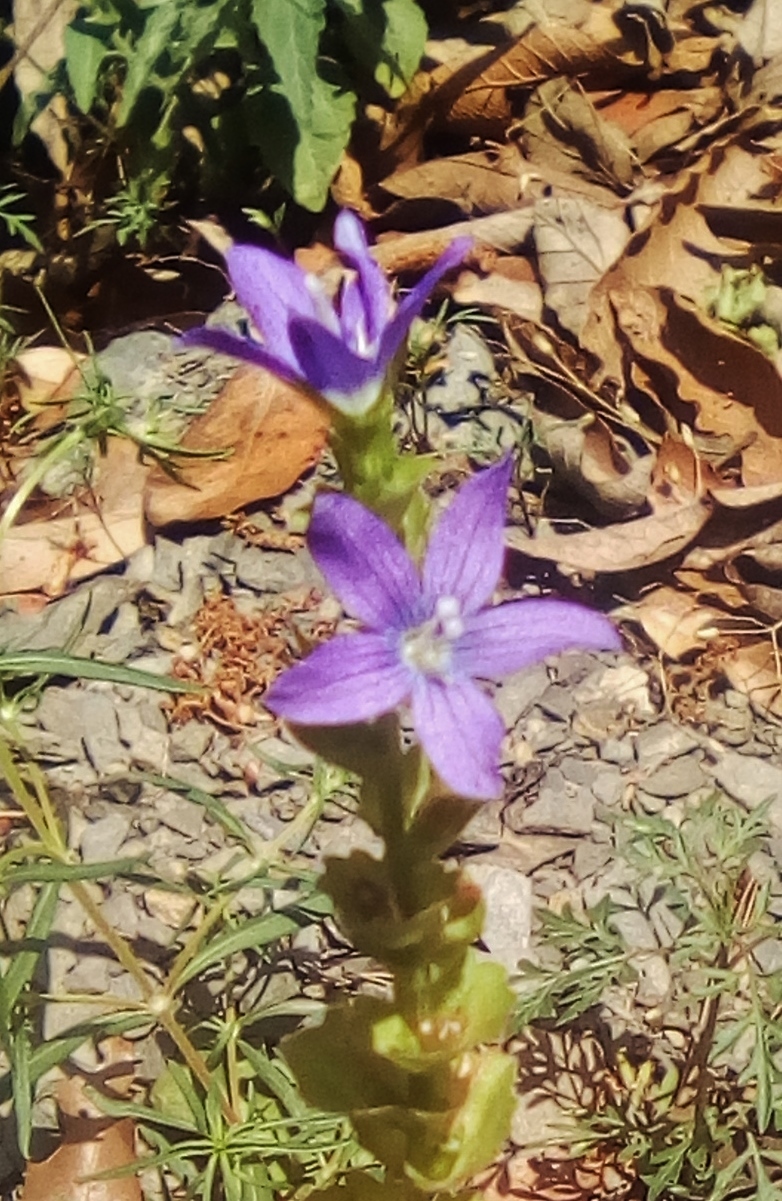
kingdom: Plantae
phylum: Tracheophyta
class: Magnoliopsida
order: Asterales
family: Campanulaceae
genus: Triodanis
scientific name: Triodanis perfoliata
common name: Clasping venus' looking-glass
